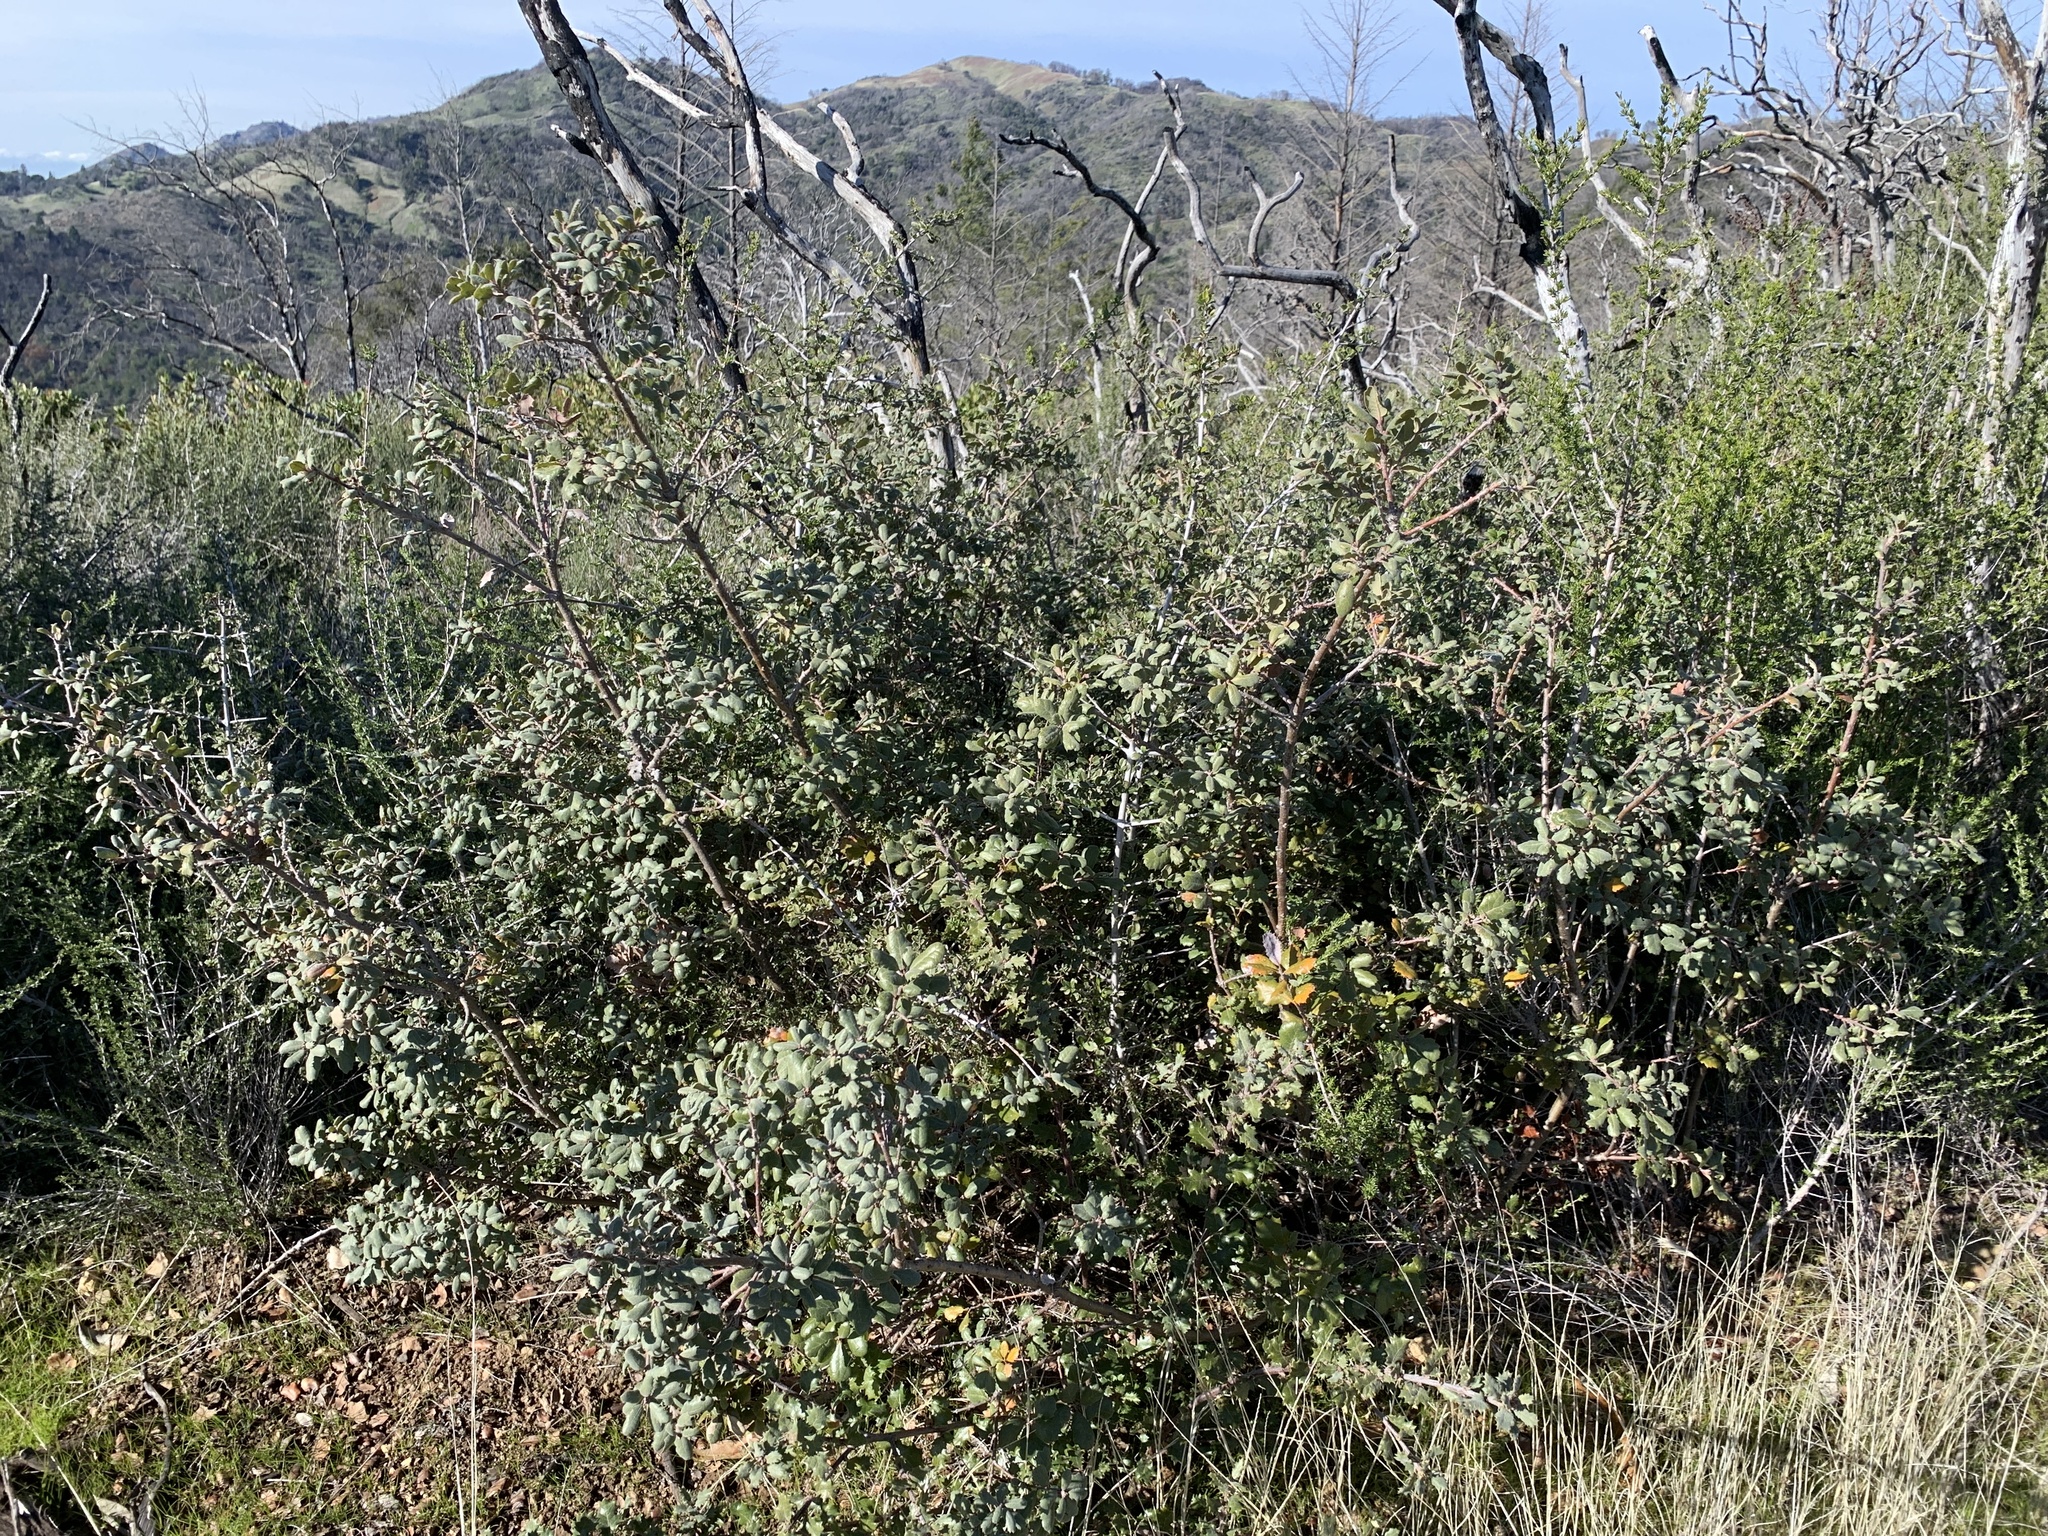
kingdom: Plantae
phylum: Tracheophyta
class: Magnoliopsida
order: Fagales
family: Fagaceae
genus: Quercus
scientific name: Quercus durata
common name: Leather oak
